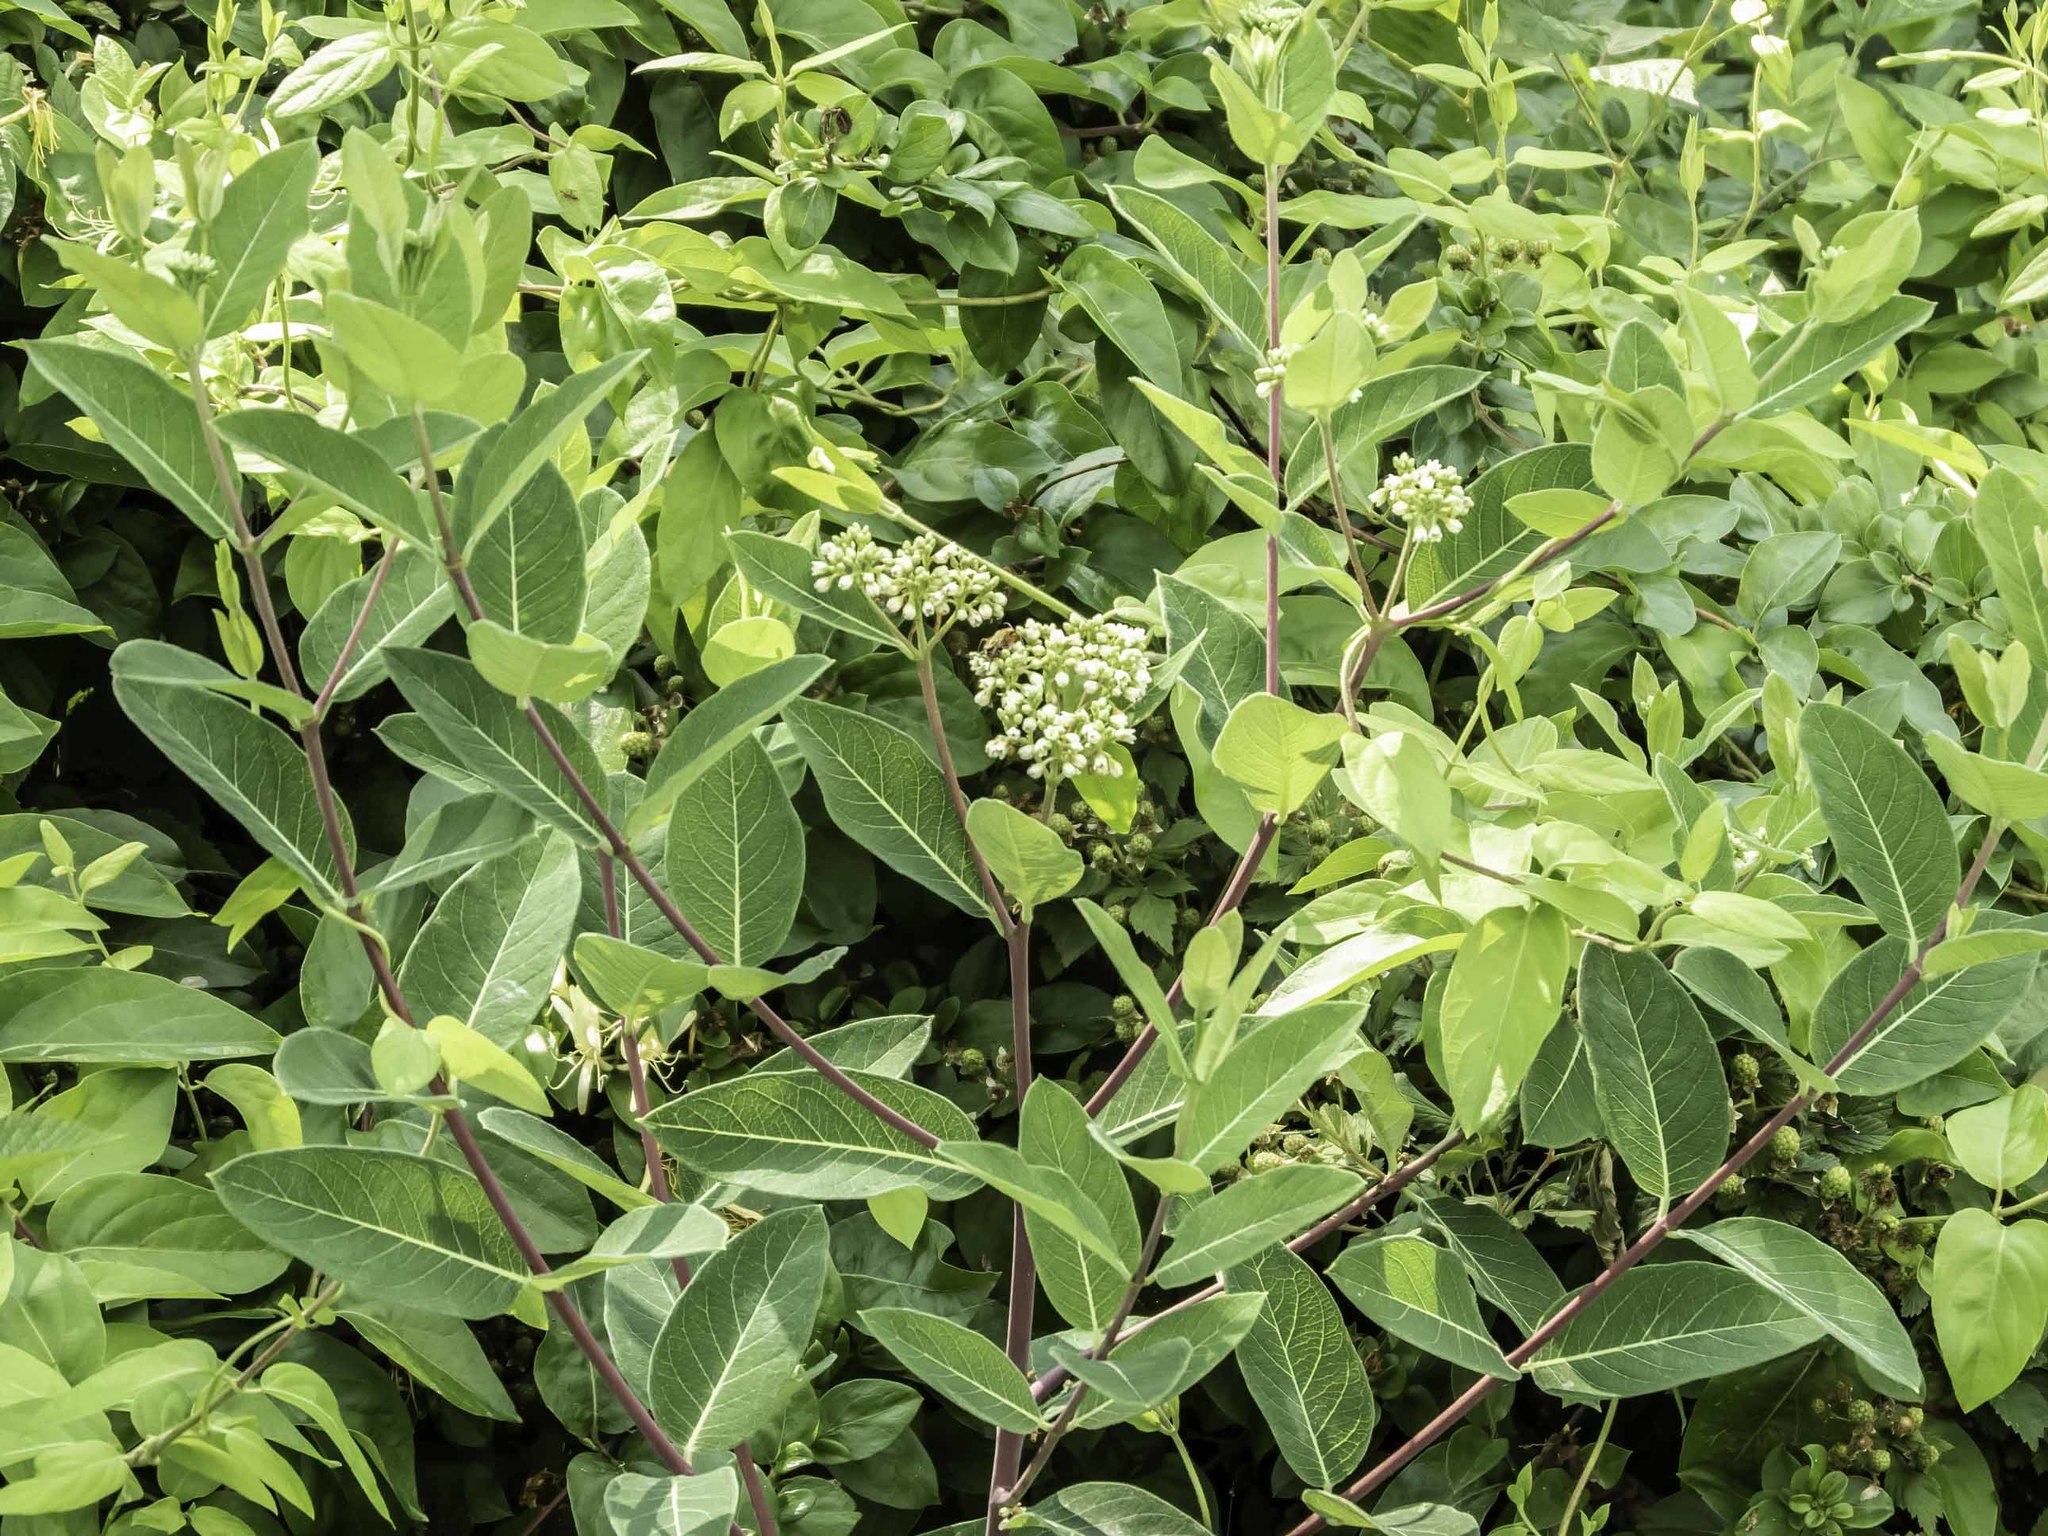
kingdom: Plantae
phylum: Tracheophyta
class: Magnoliopsida
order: Gentianales
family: Apocynaceae
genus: Apocynum
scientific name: Apocynum cannabinum
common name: Hemp dogbane
